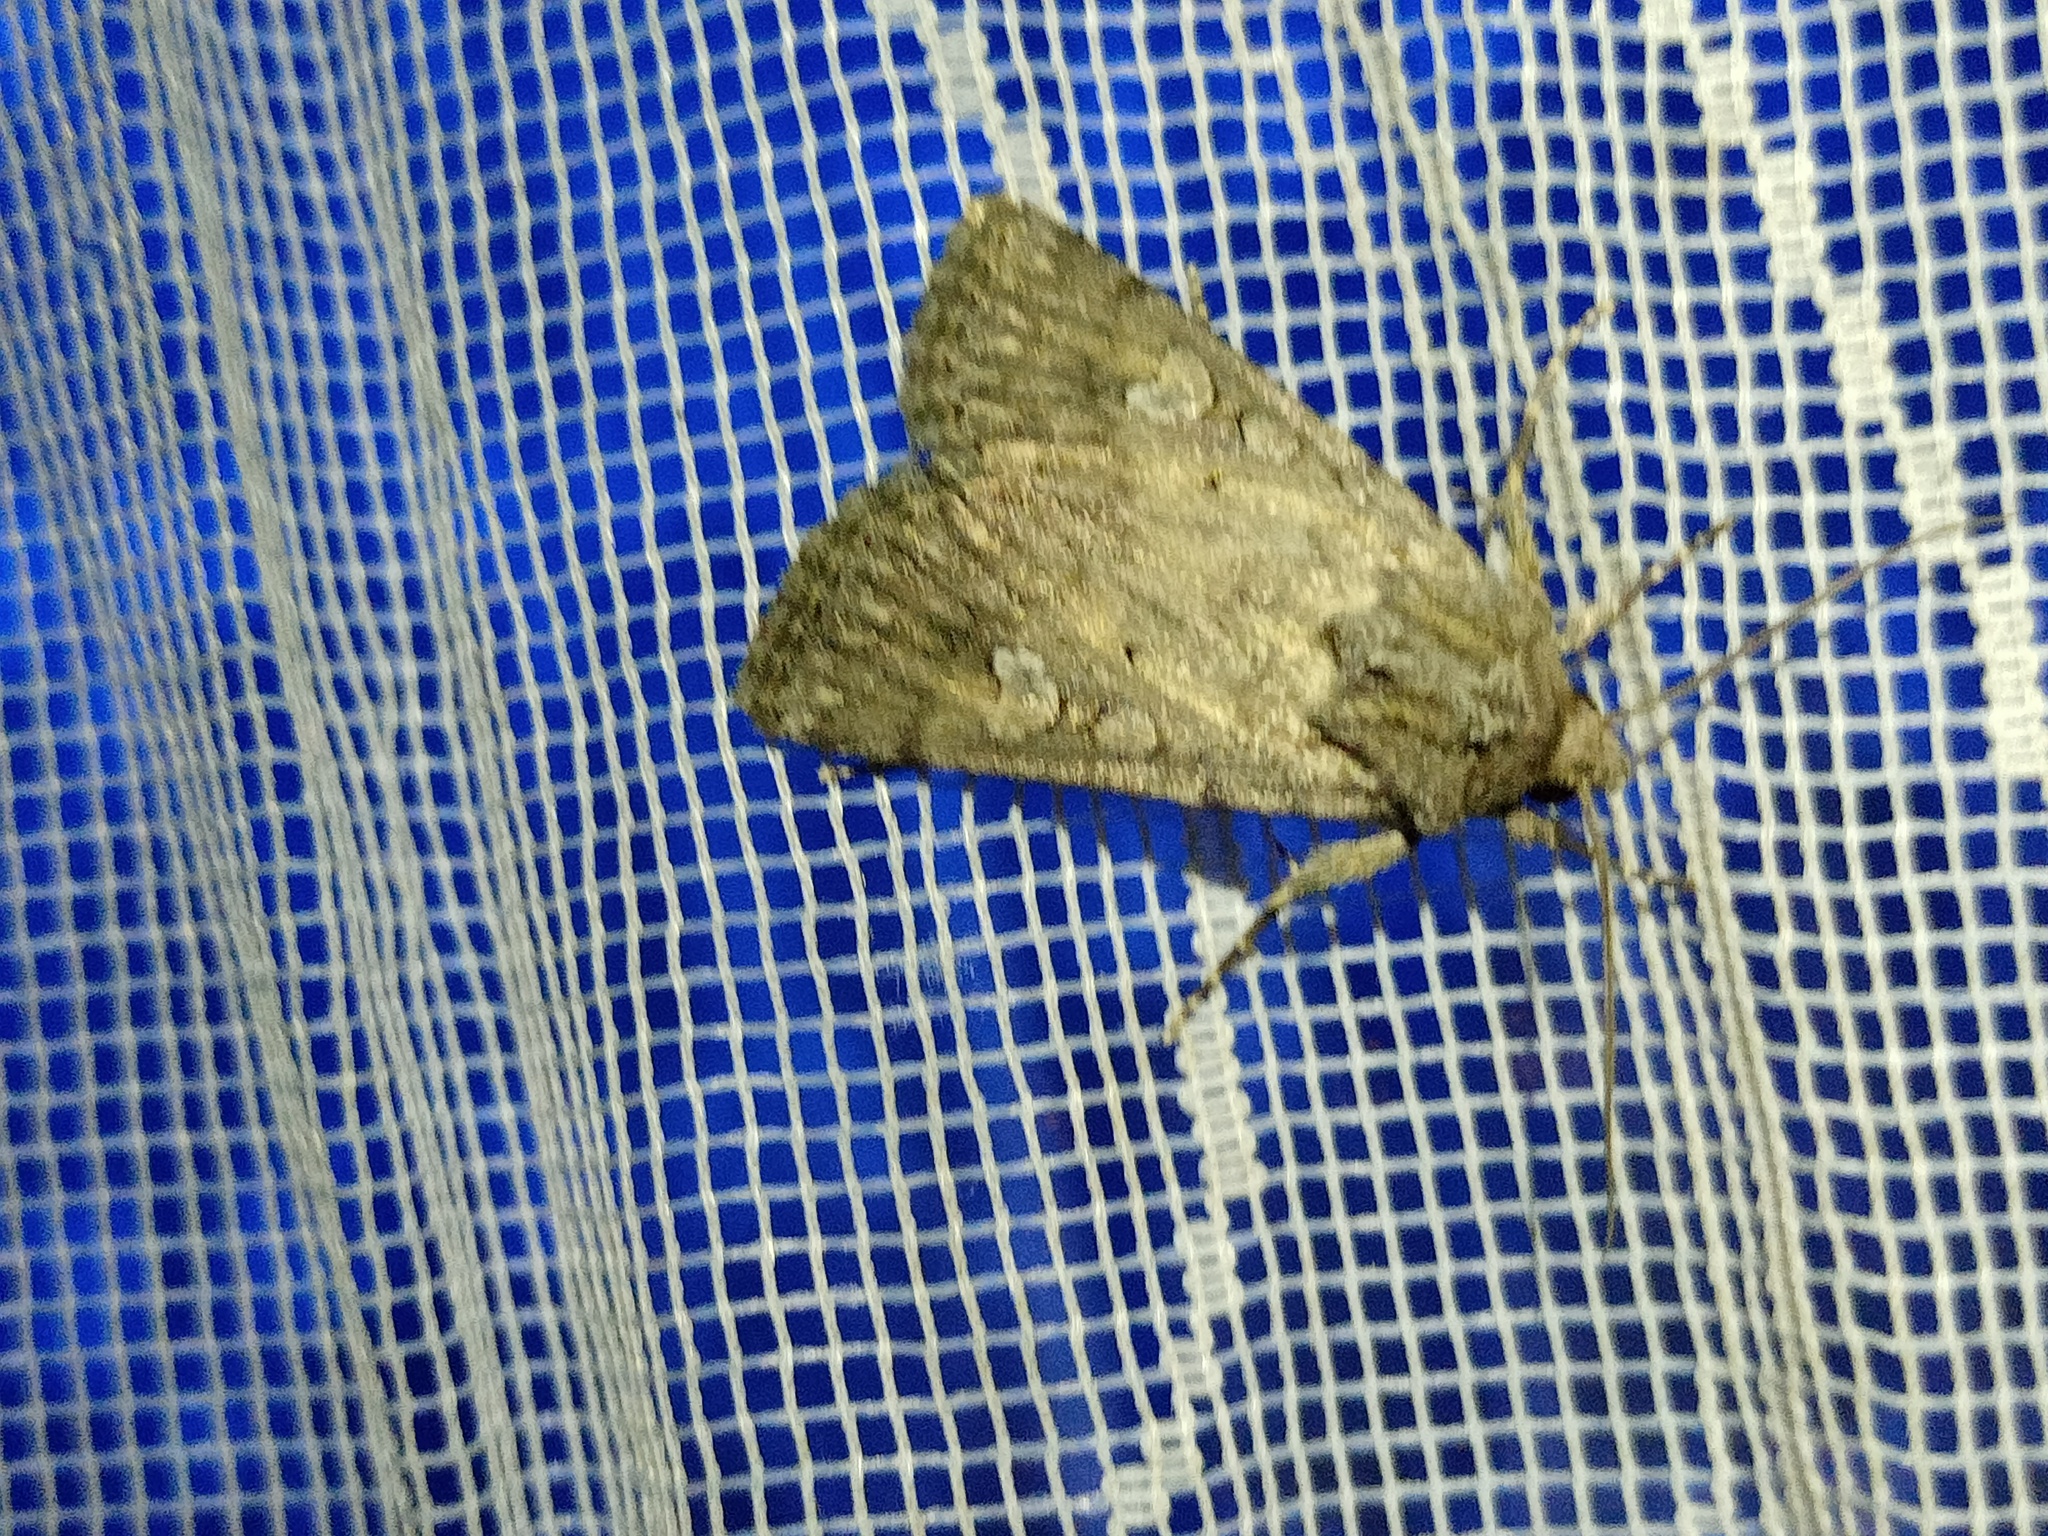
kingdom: Animalia
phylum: Arthropoda
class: Insecta
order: Lepidoptera
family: Noctuidae
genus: Yigoga
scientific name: Yigoga forcipula
